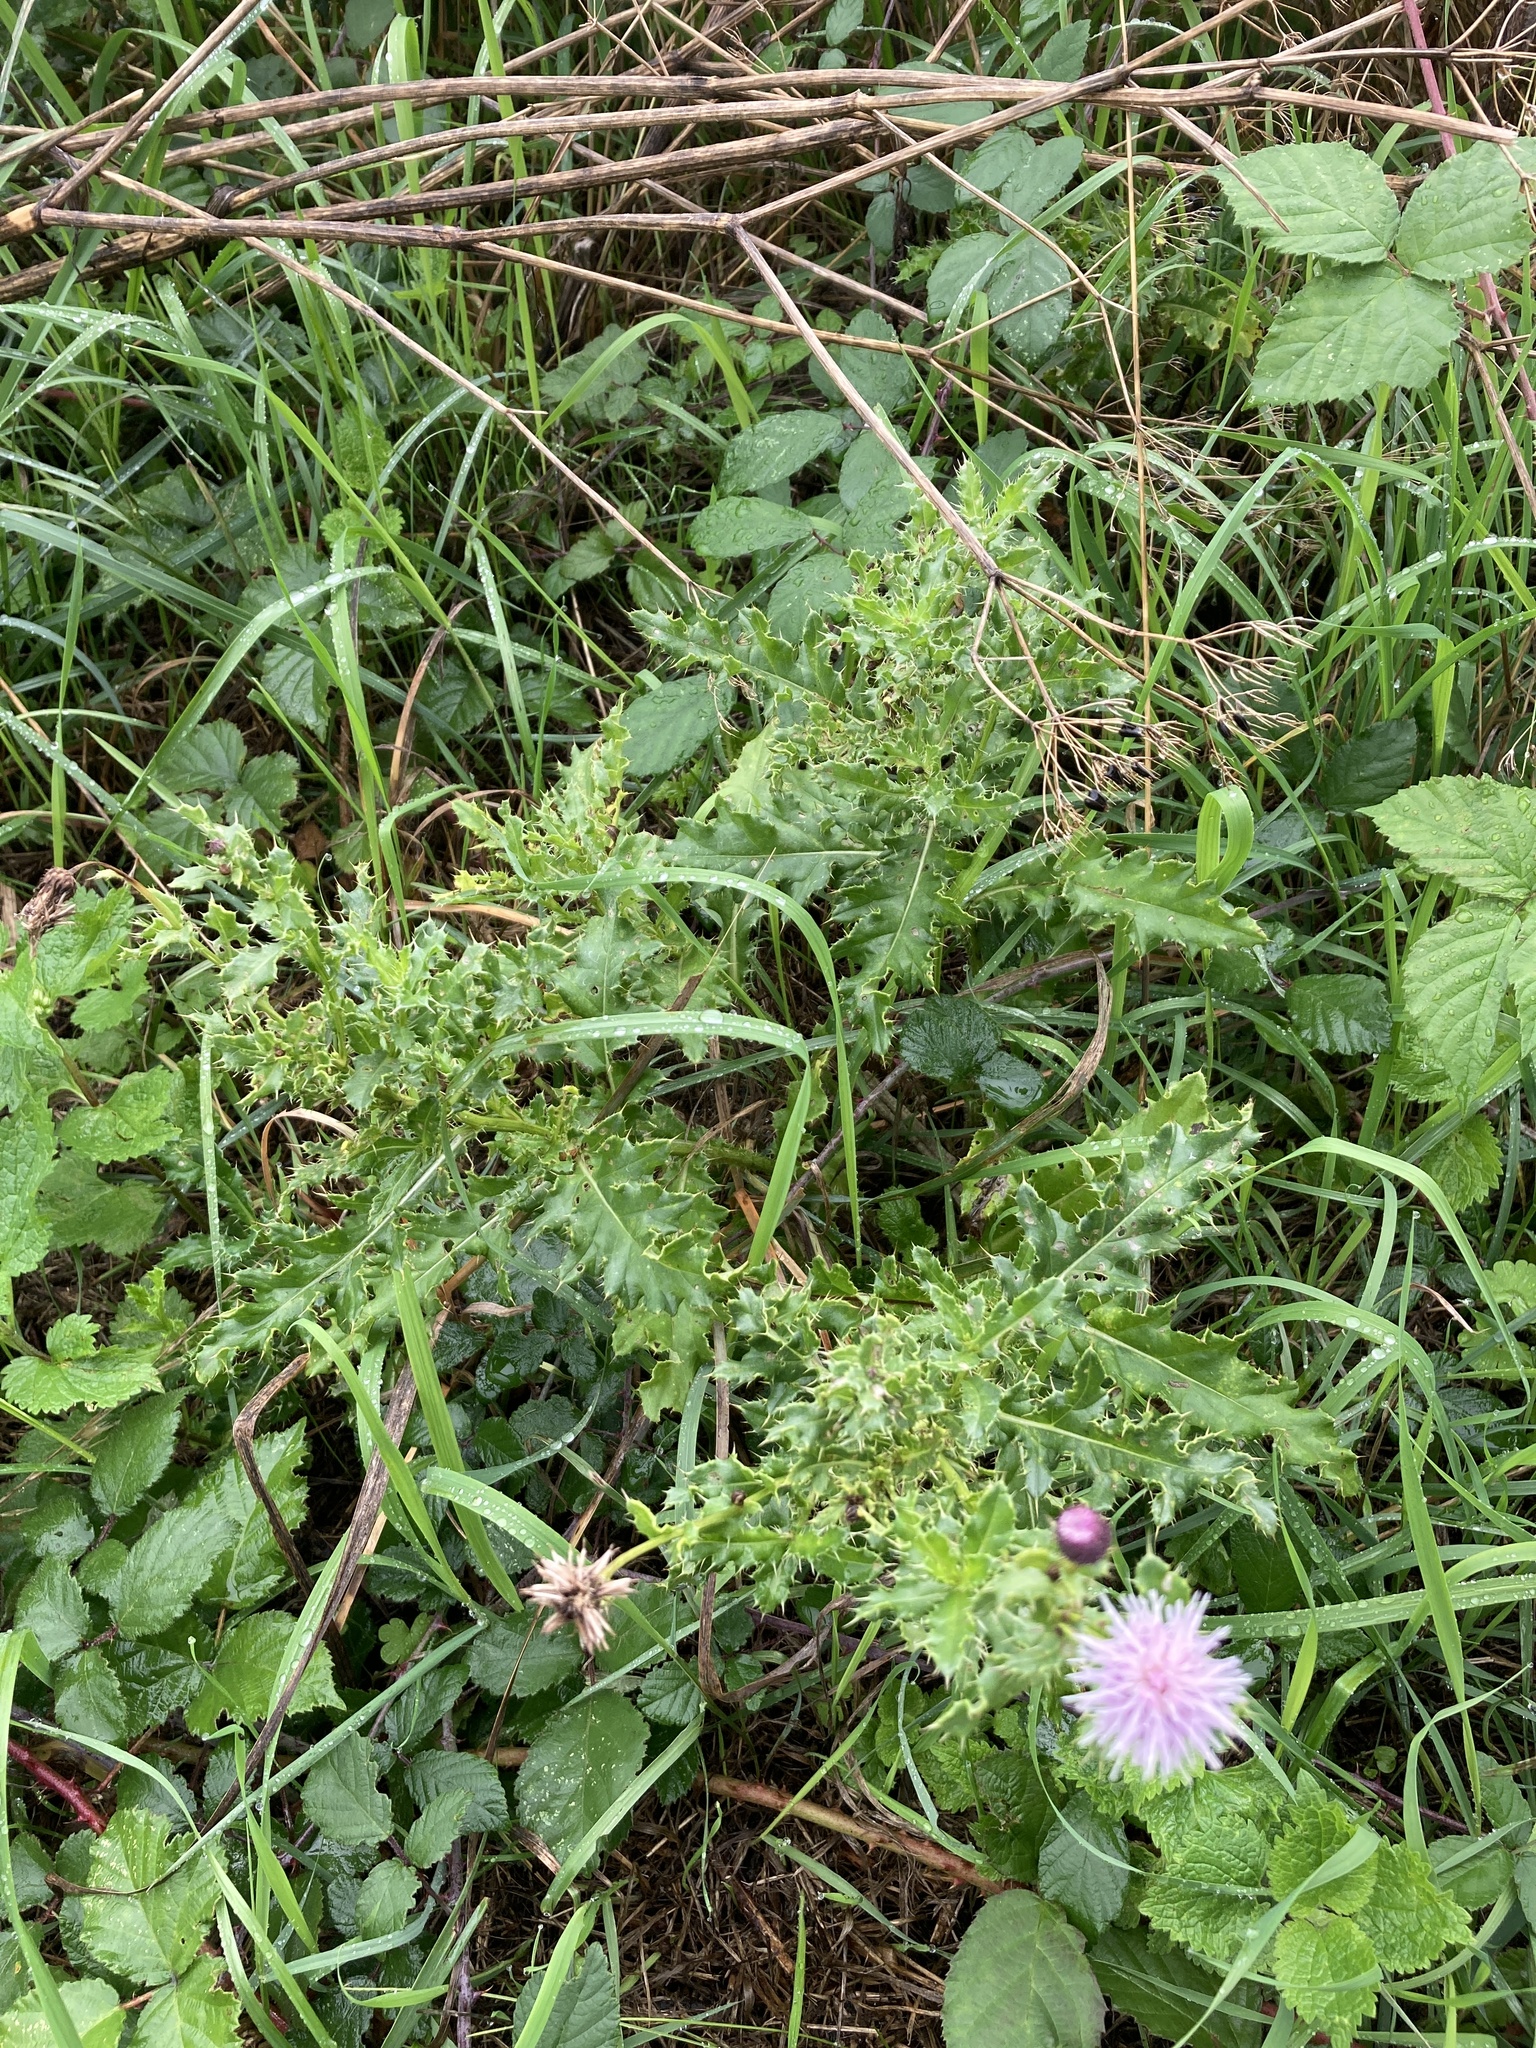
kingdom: Plantae
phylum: Tracheophyta
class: Magnoliopsida
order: Asterales
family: Asteraceae
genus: Cirsium
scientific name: Cirsium arvense
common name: Creeping thistle
